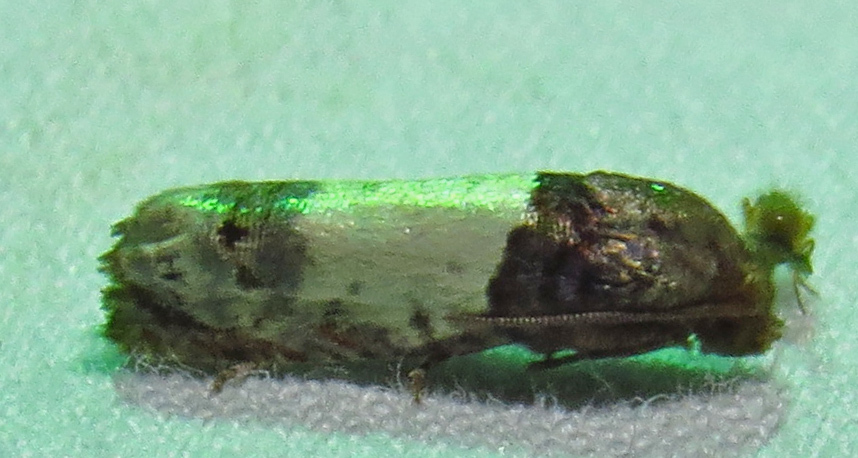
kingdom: Animalia
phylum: Arthropoda
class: Insecta
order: Lepidoptera
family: Tortricidae
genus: Epiblema
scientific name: Epiblema scudderiana
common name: Goldenrod gall moth
